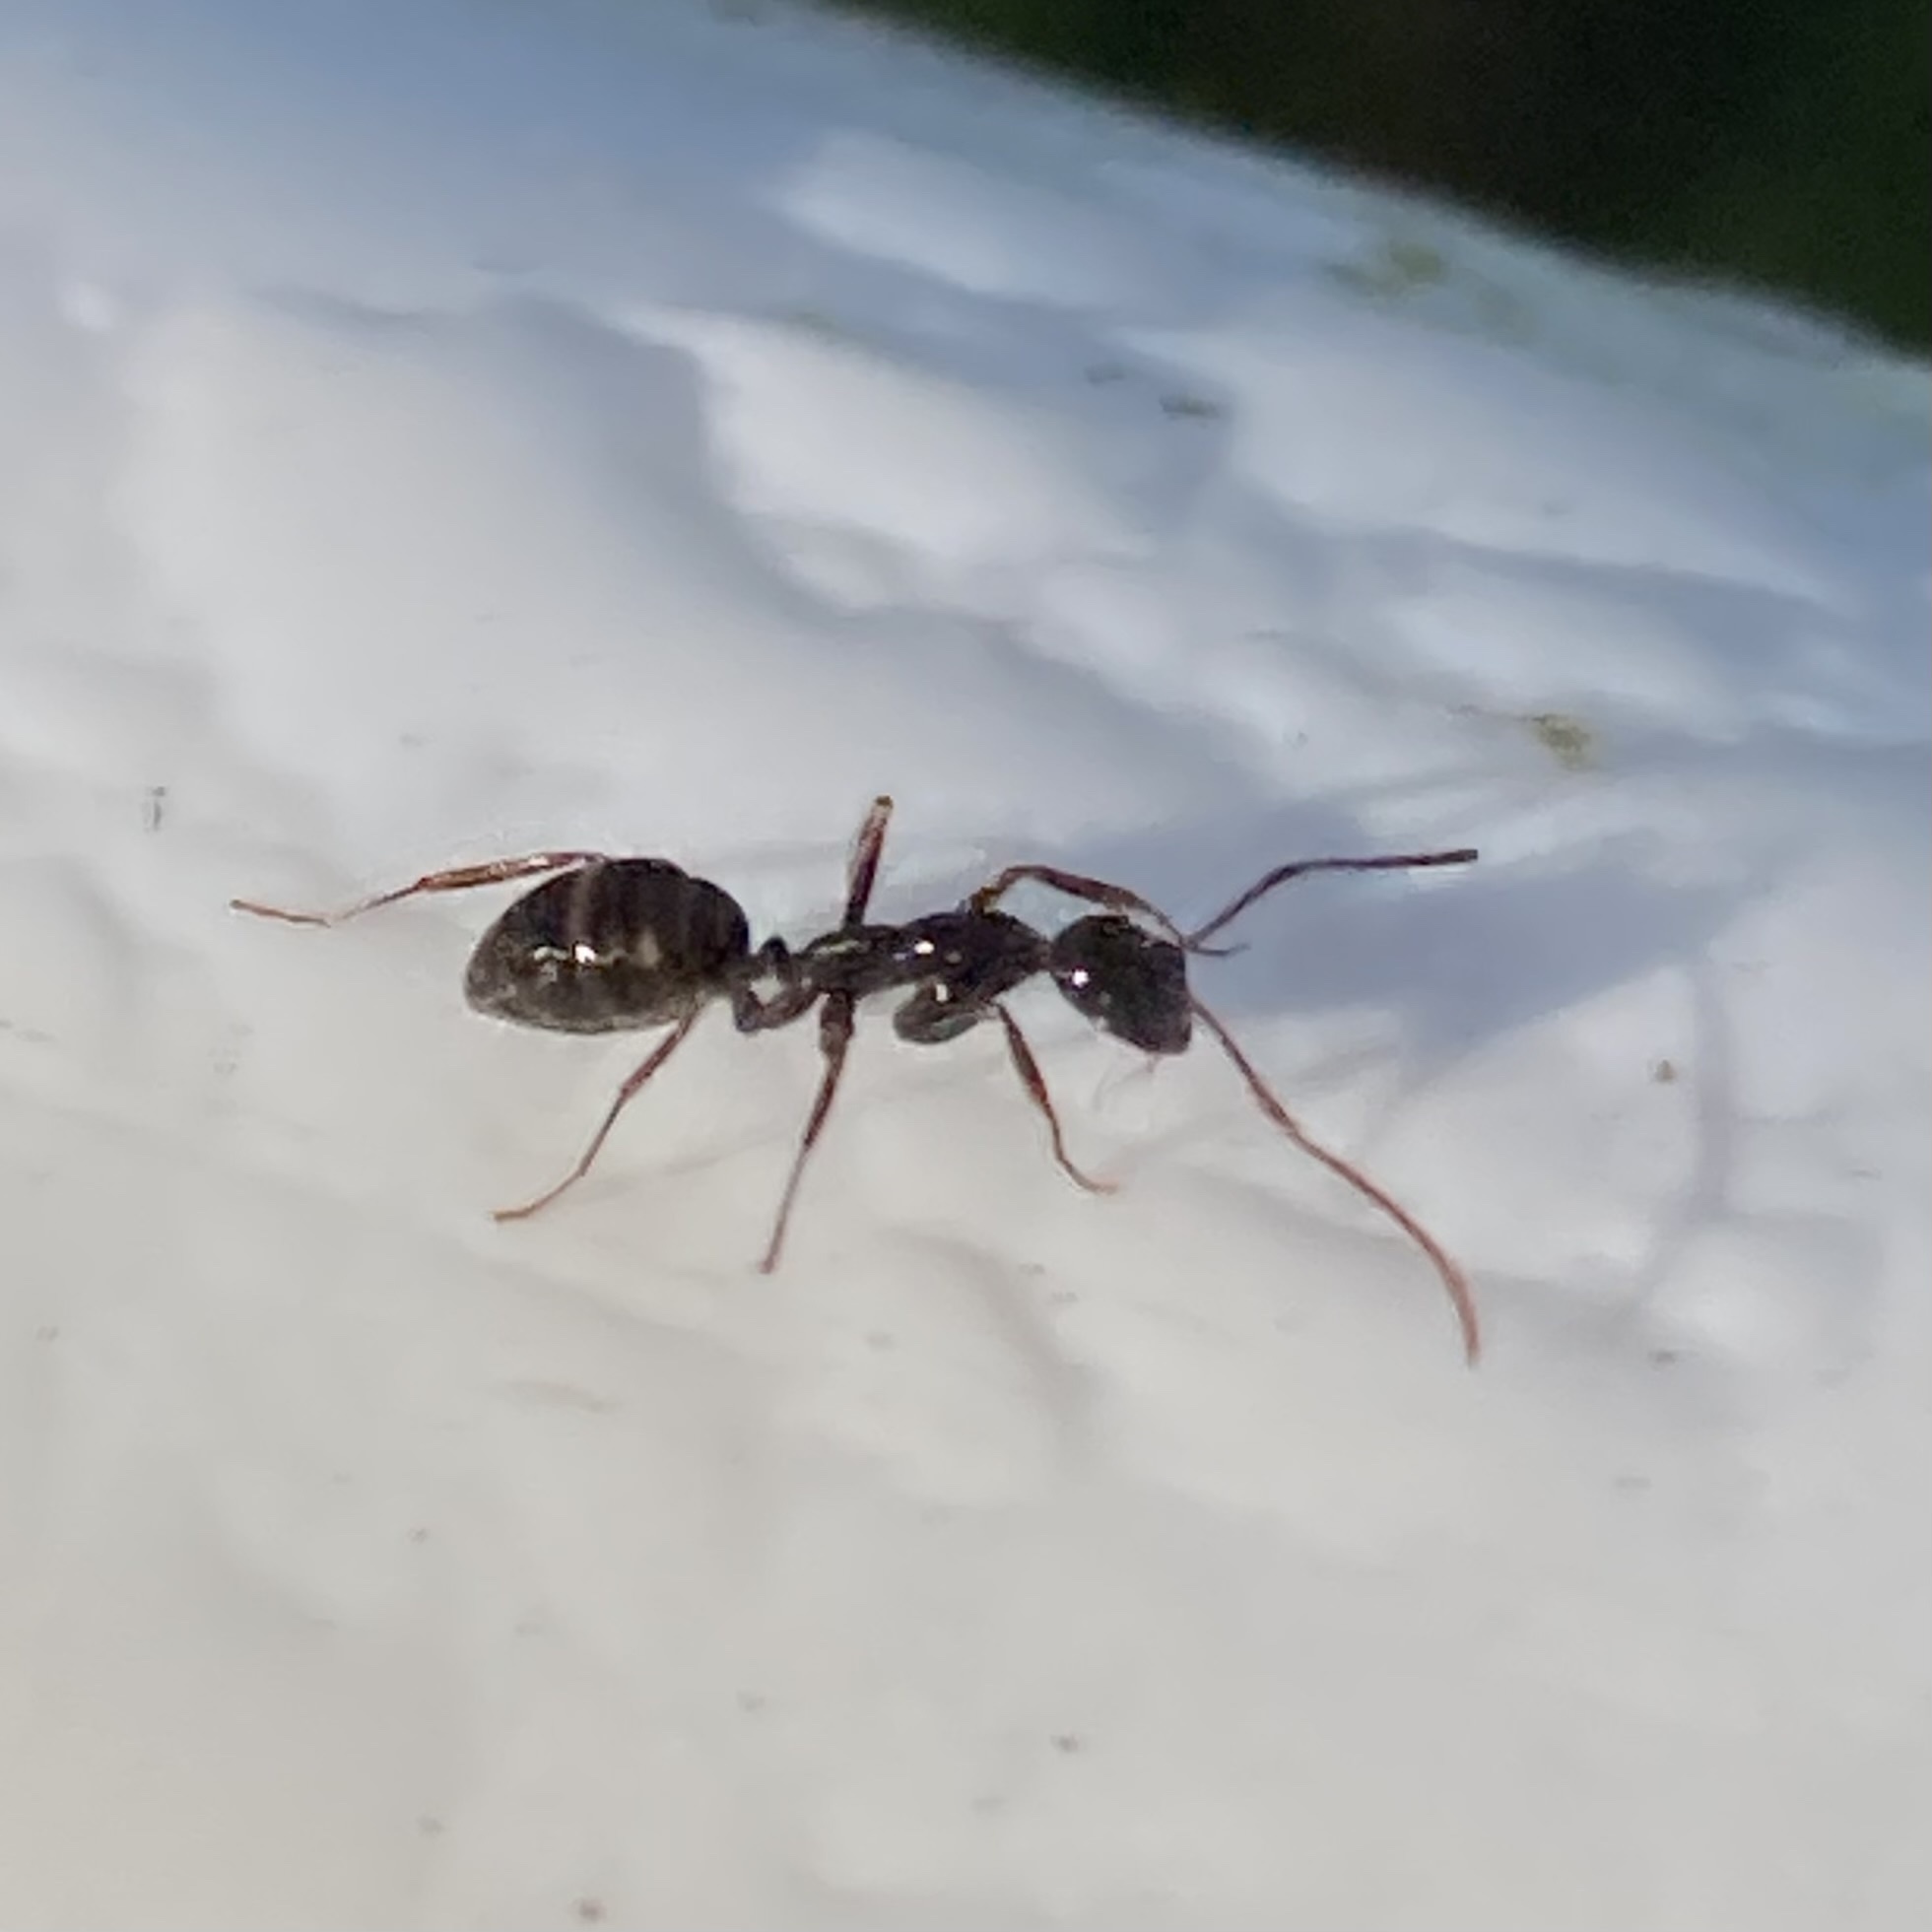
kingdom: Animalia
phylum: Arthropoda
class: Insecta
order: Hymenoptera
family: Formicidae
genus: Camponotus
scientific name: Camponotus sexguttatus
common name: Neotropical carpenter ant
